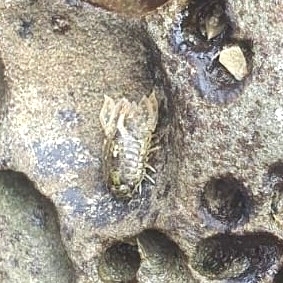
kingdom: Animalia
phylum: Arthropoda
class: Malacostraca
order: Isopoda
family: Sphaeromatidae
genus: Isocladus
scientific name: Isocladus armatus
